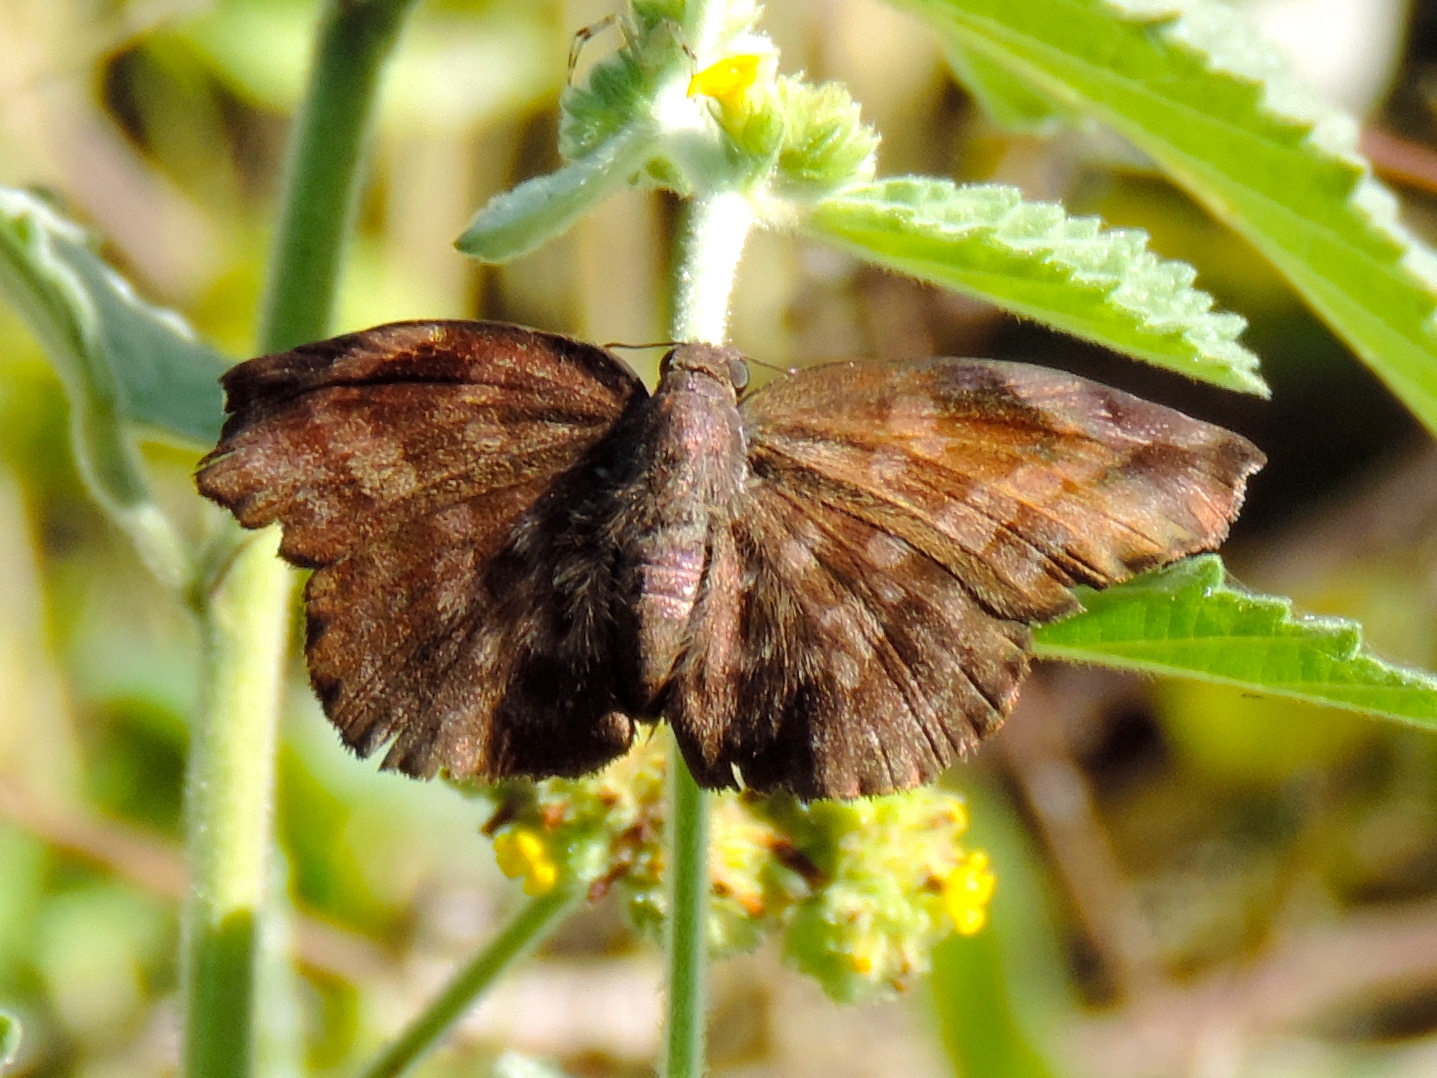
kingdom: Animalia
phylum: Arthropoda
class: Insecta
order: Lepidoptera
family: Hesperiidae
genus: Achlyodes
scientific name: Achlyodes
